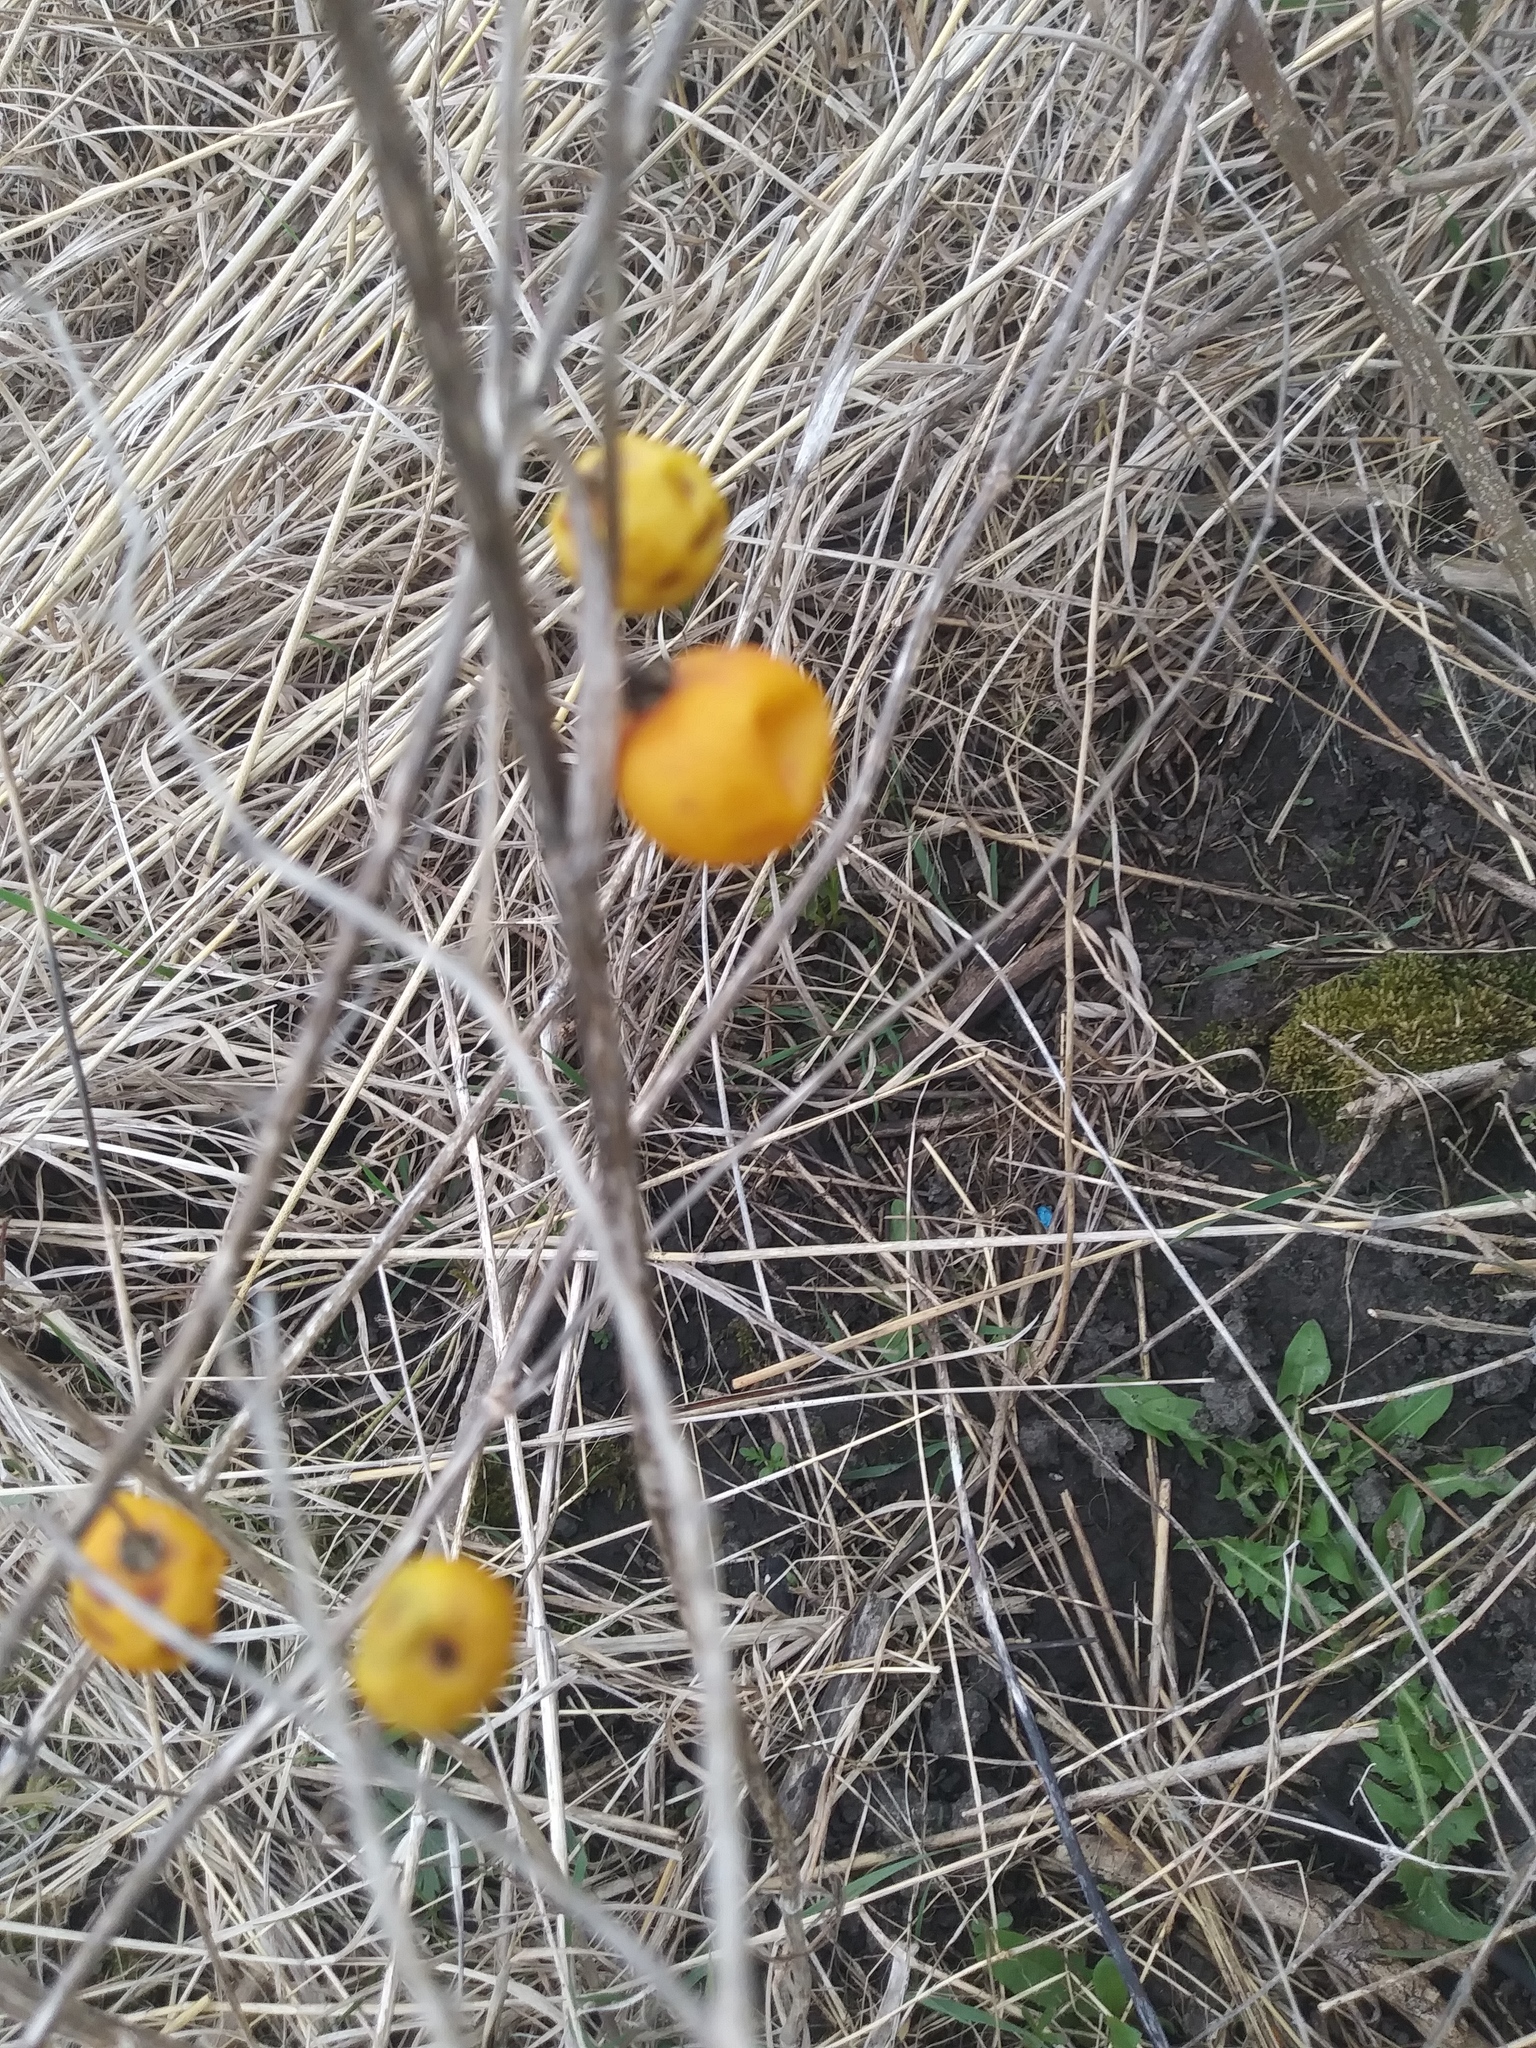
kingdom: Plantae
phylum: Tracheophyta
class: Magnoliopsida
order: Solanales
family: Solanaceae
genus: Solanum
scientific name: Solanum carolinense
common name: Horse-nettle
